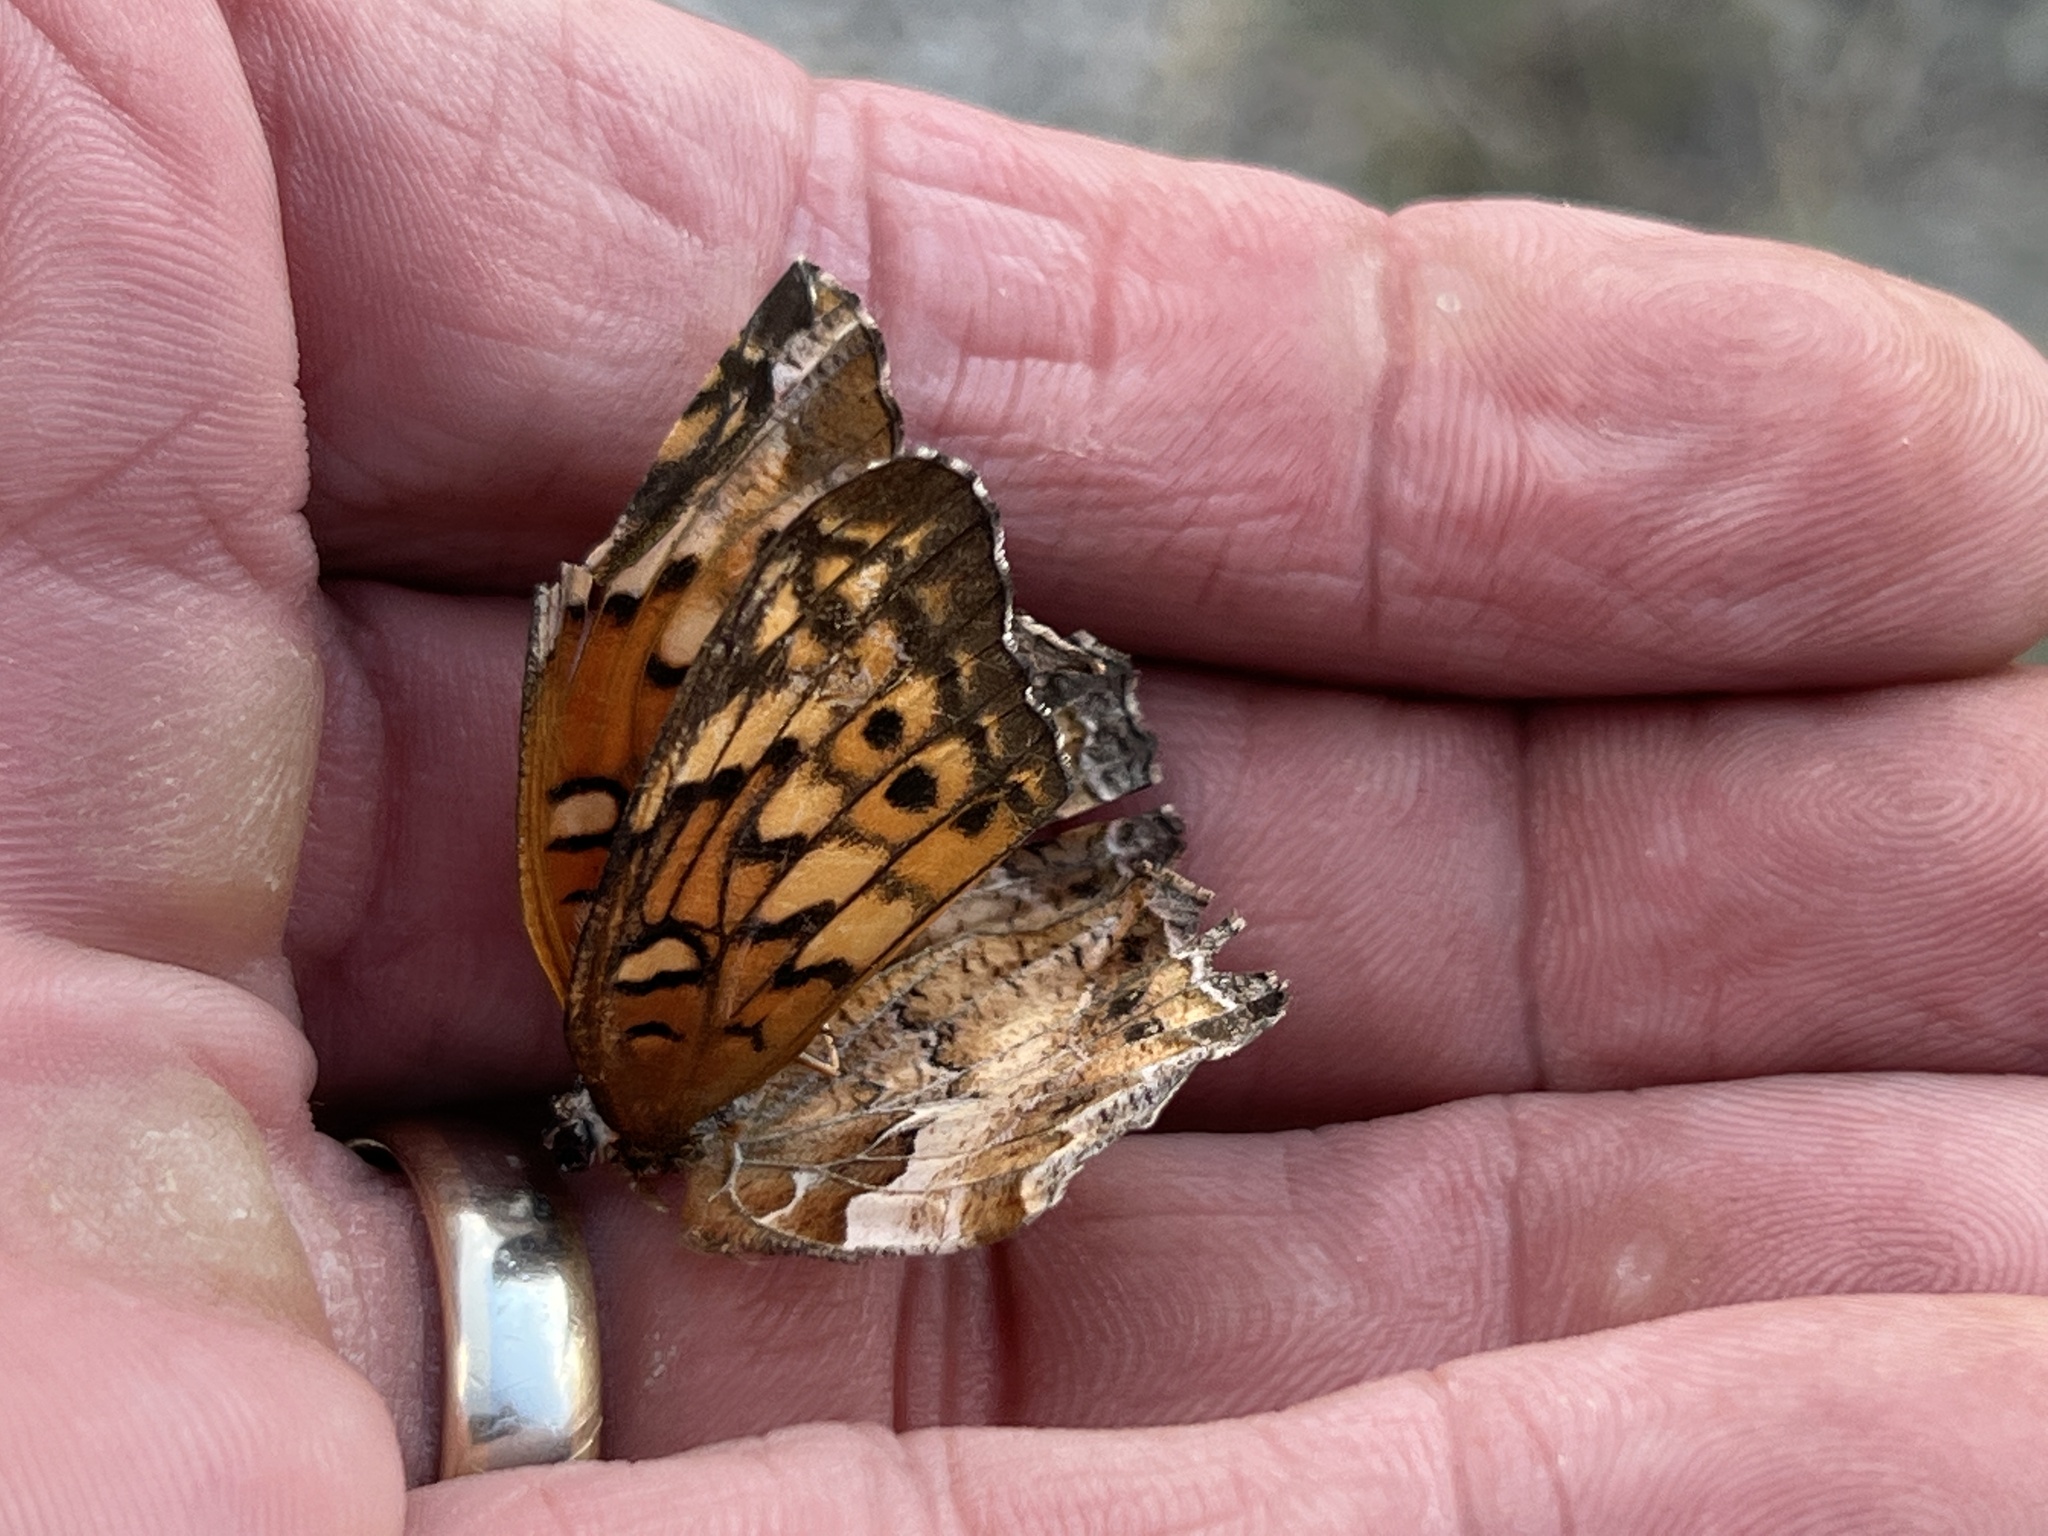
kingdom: Animalia
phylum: Arthropoda
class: Insecta
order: Lepidoptera
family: Nymphalidae
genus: Euptoieta
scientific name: Euptoieta claudia
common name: Variegated fritillary
